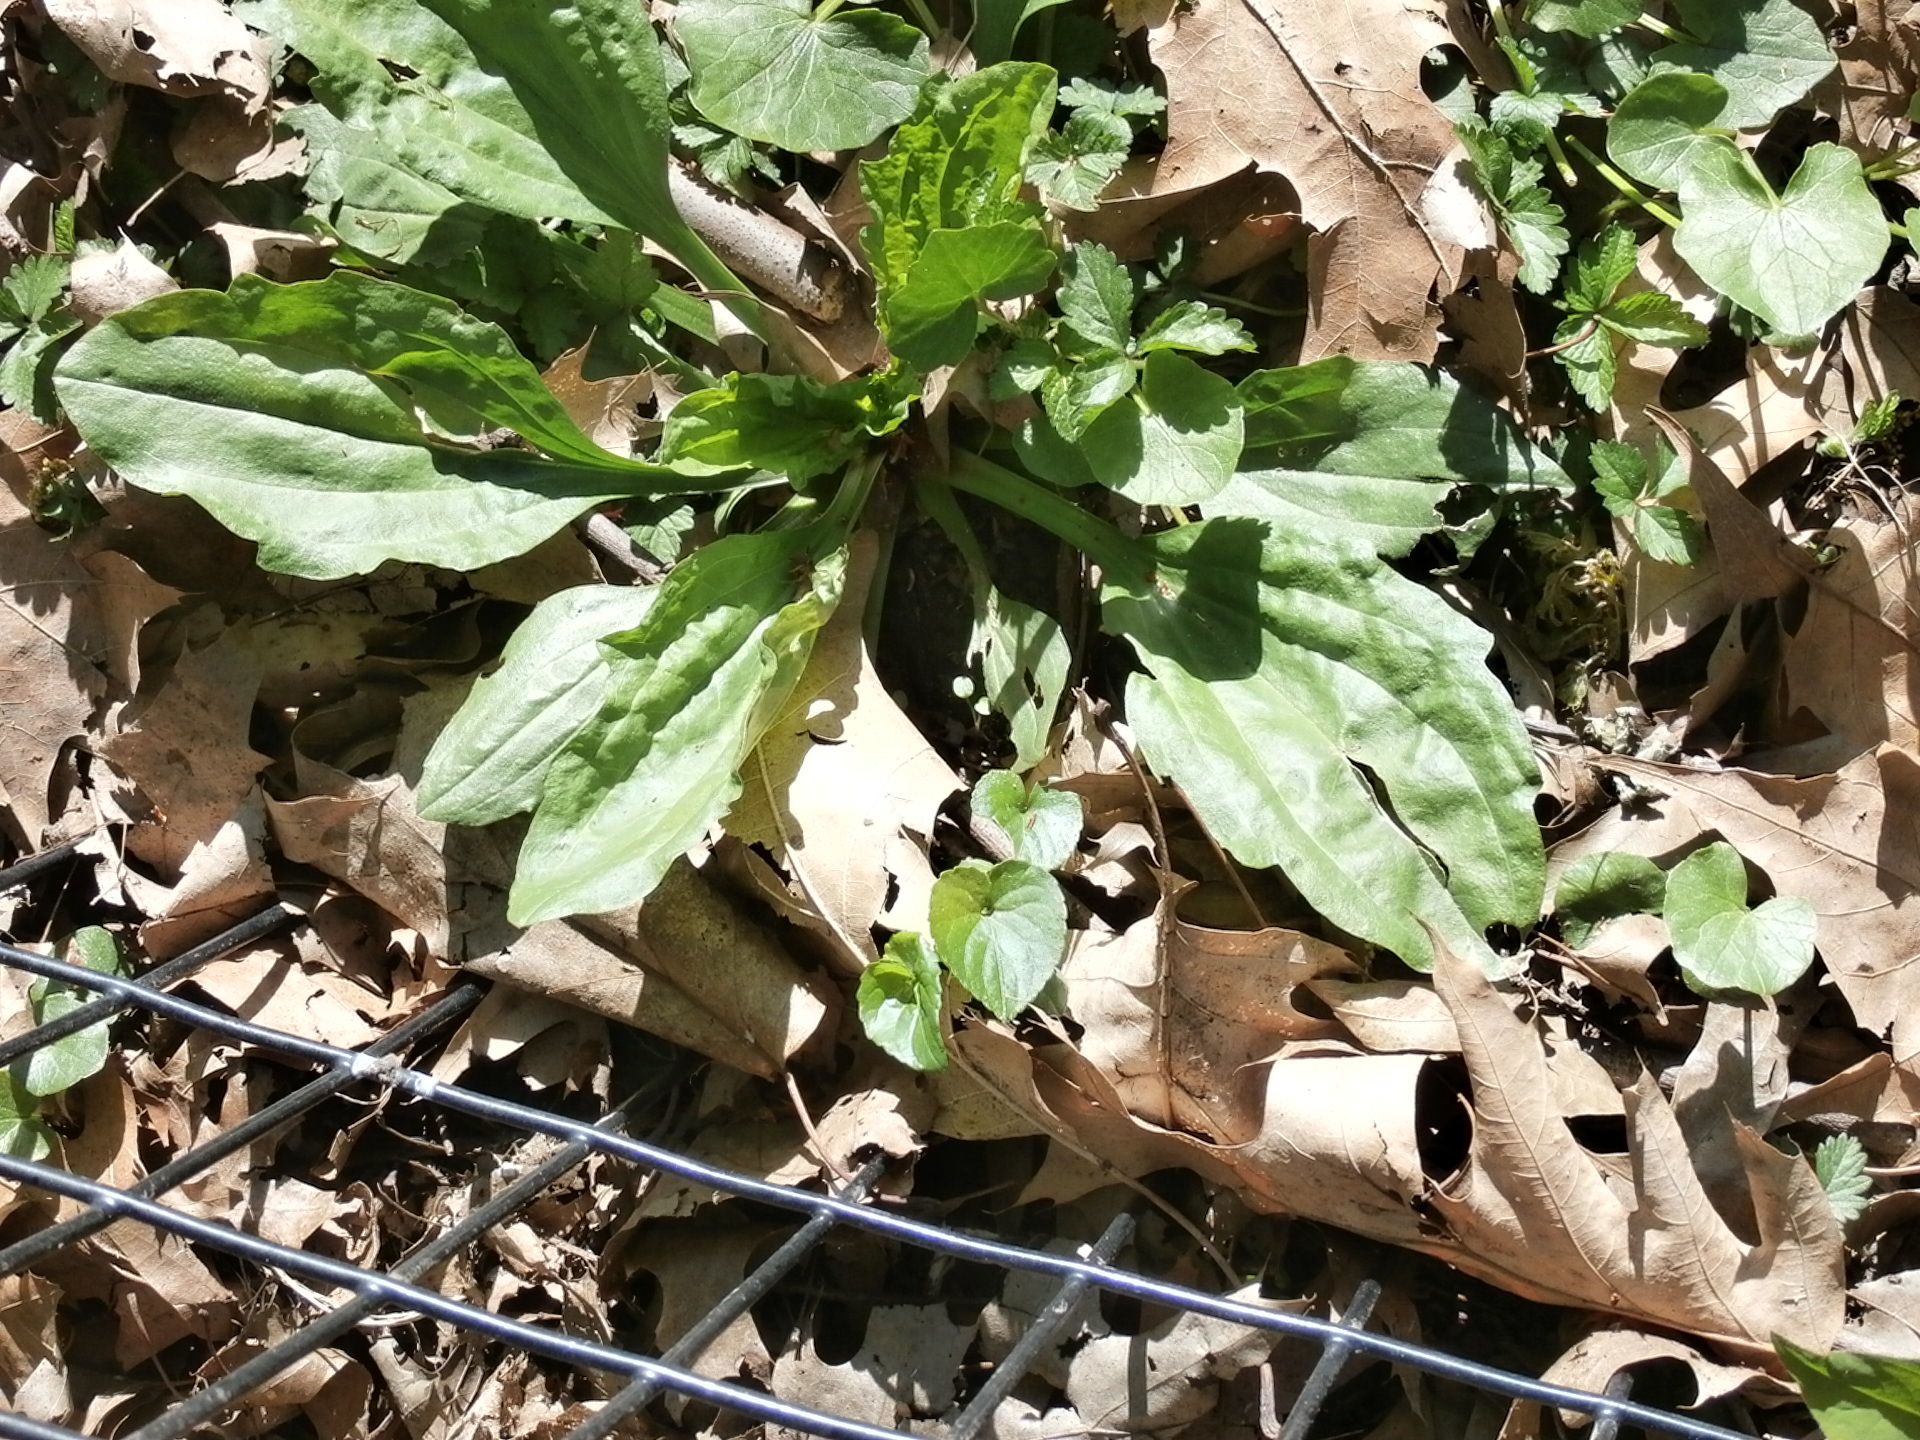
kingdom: Plantae
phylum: Tracheophyta
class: Magnoliopsida
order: Lamiales
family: Plantaginaceae
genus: Plantago
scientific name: Plantago rugelii
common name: American plantain
